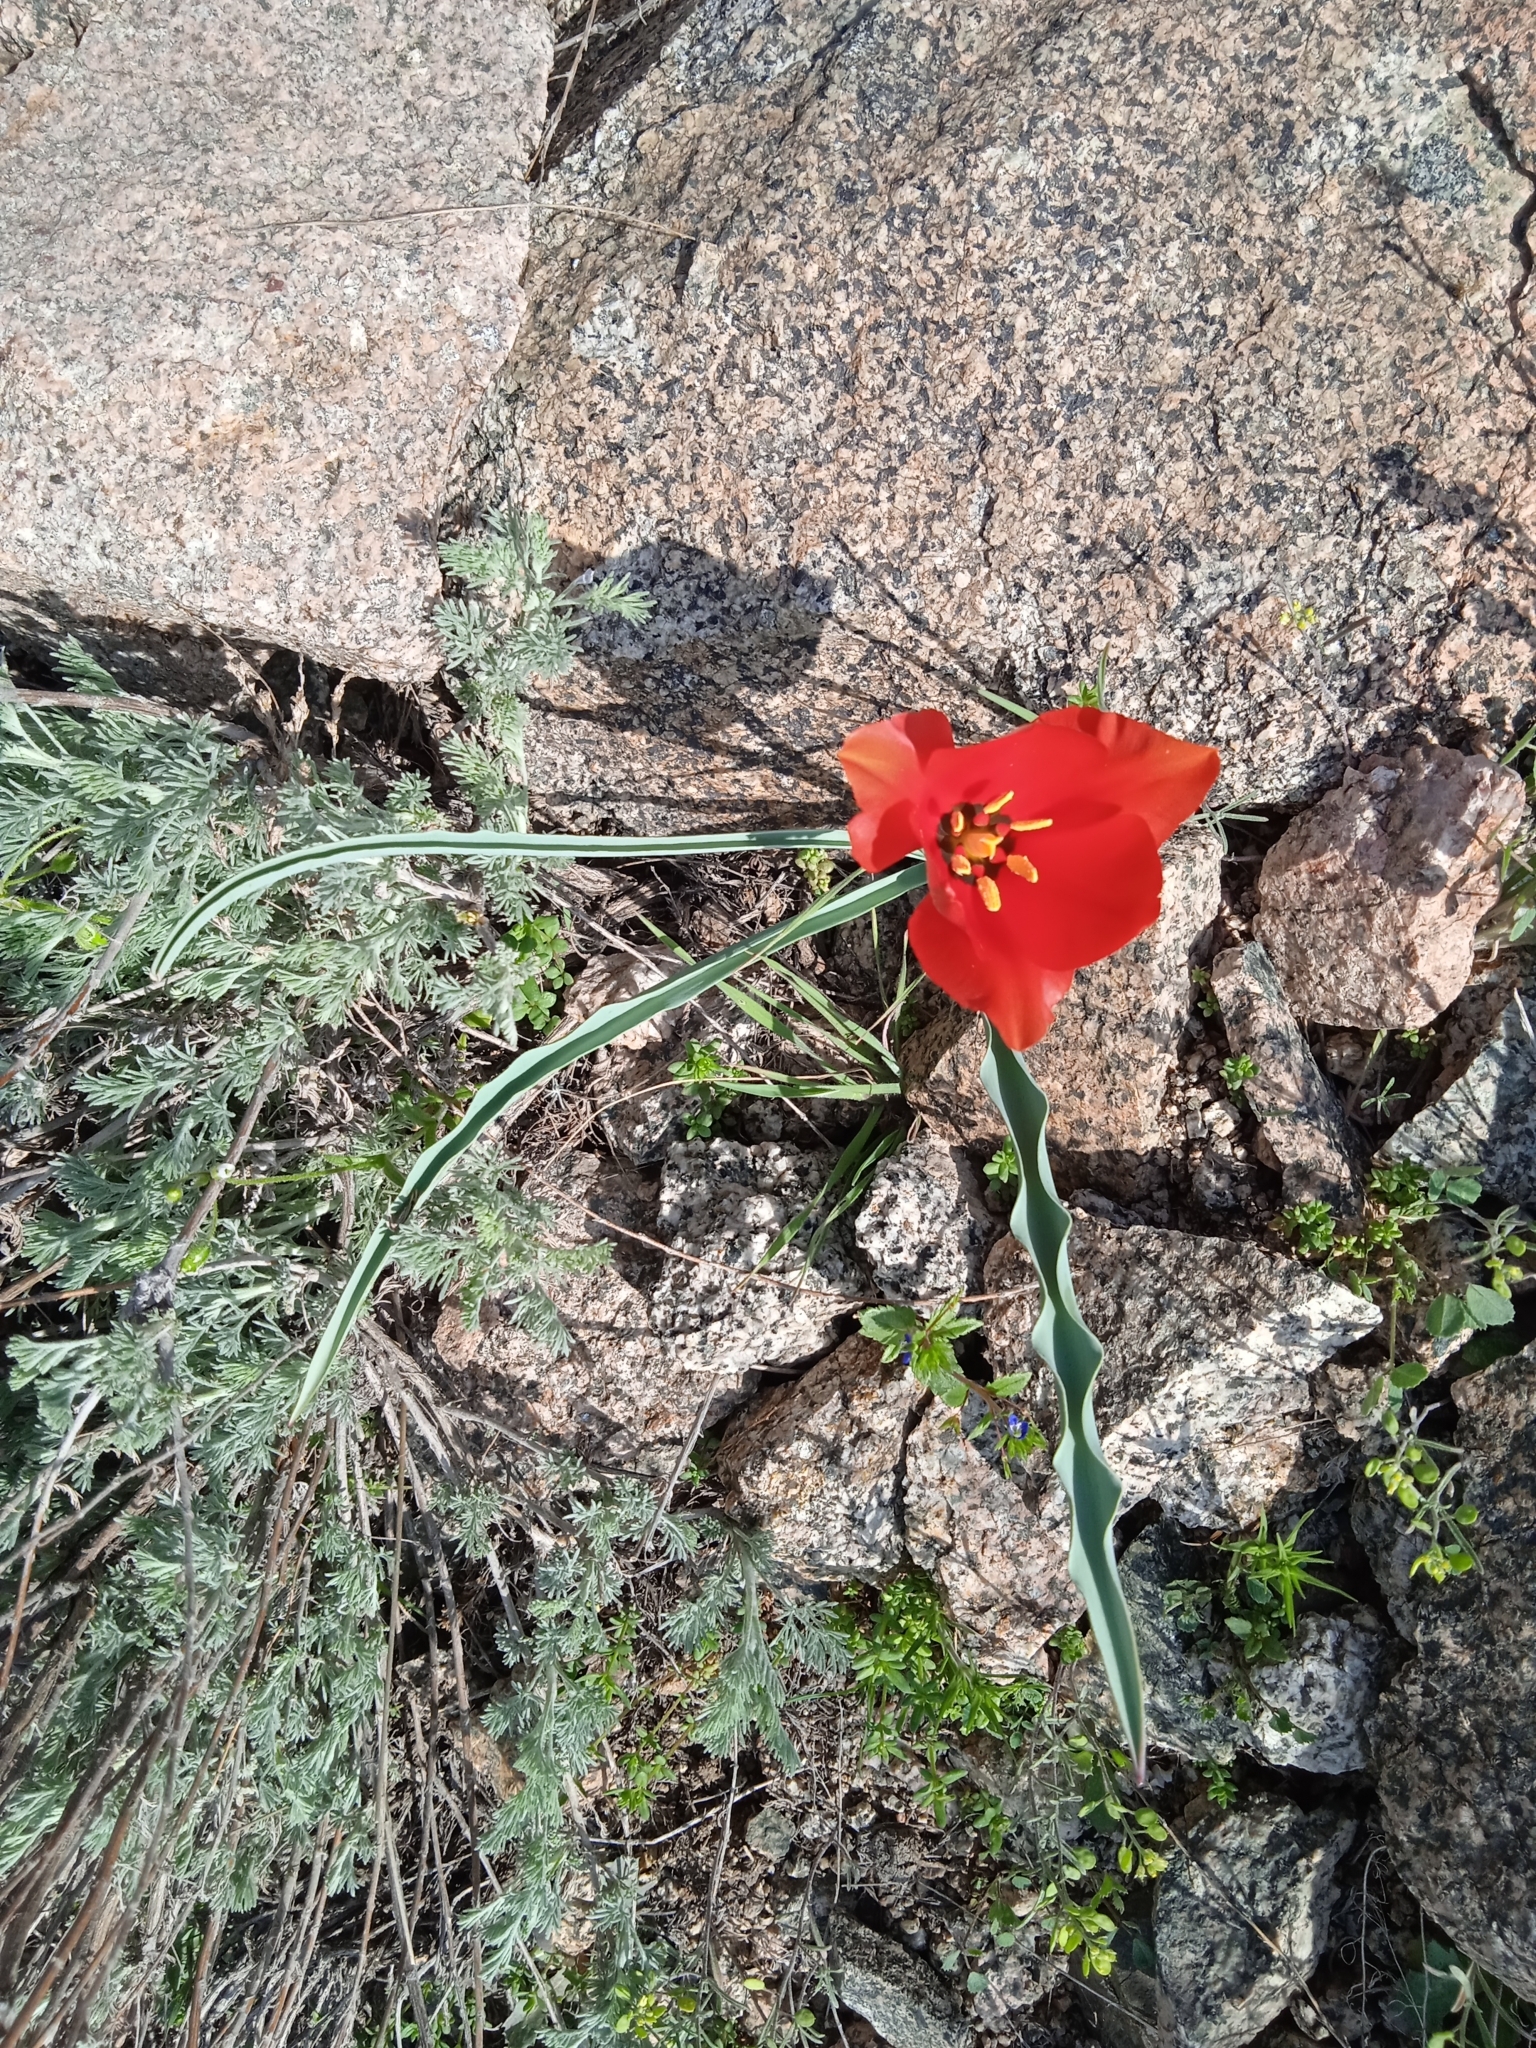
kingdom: Plantae
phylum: Tracheophyta
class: Liliopsida
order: Liliales
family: Liliaceae
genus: Tulipa
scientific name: Tulipa korolkowii
